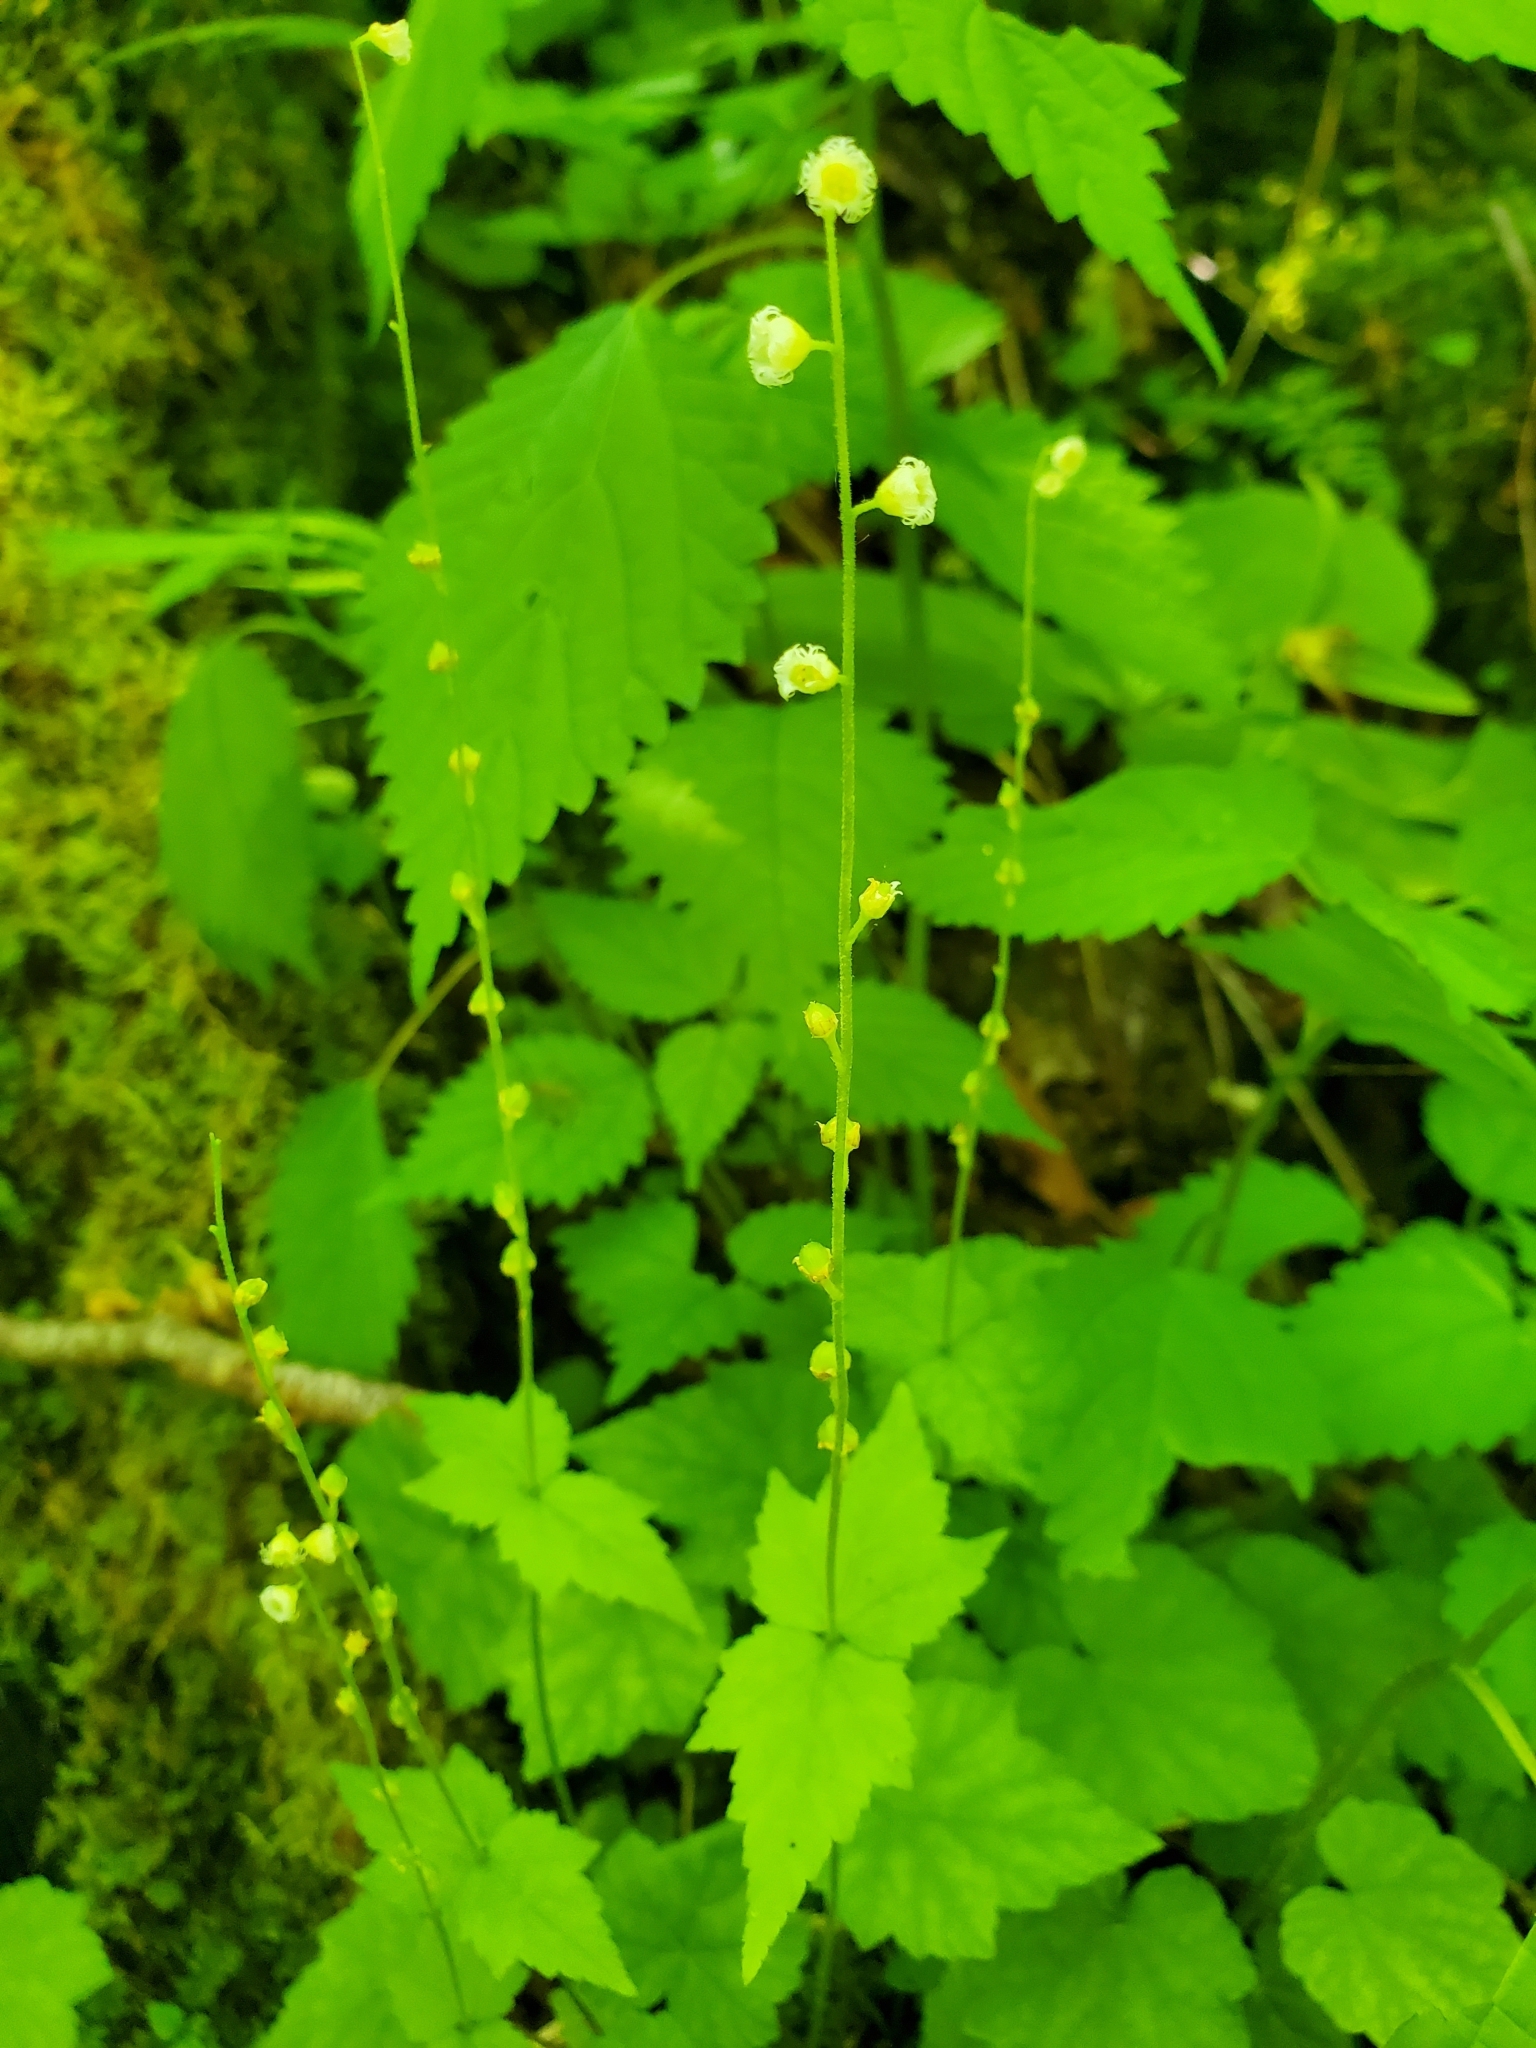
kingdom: Plantae
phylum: Tracheophyta
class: Magnoliopsida
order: Saxifragales
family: Saxifragaceae
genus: Mitella
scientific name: Mitella diphylla
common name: Coolwort
